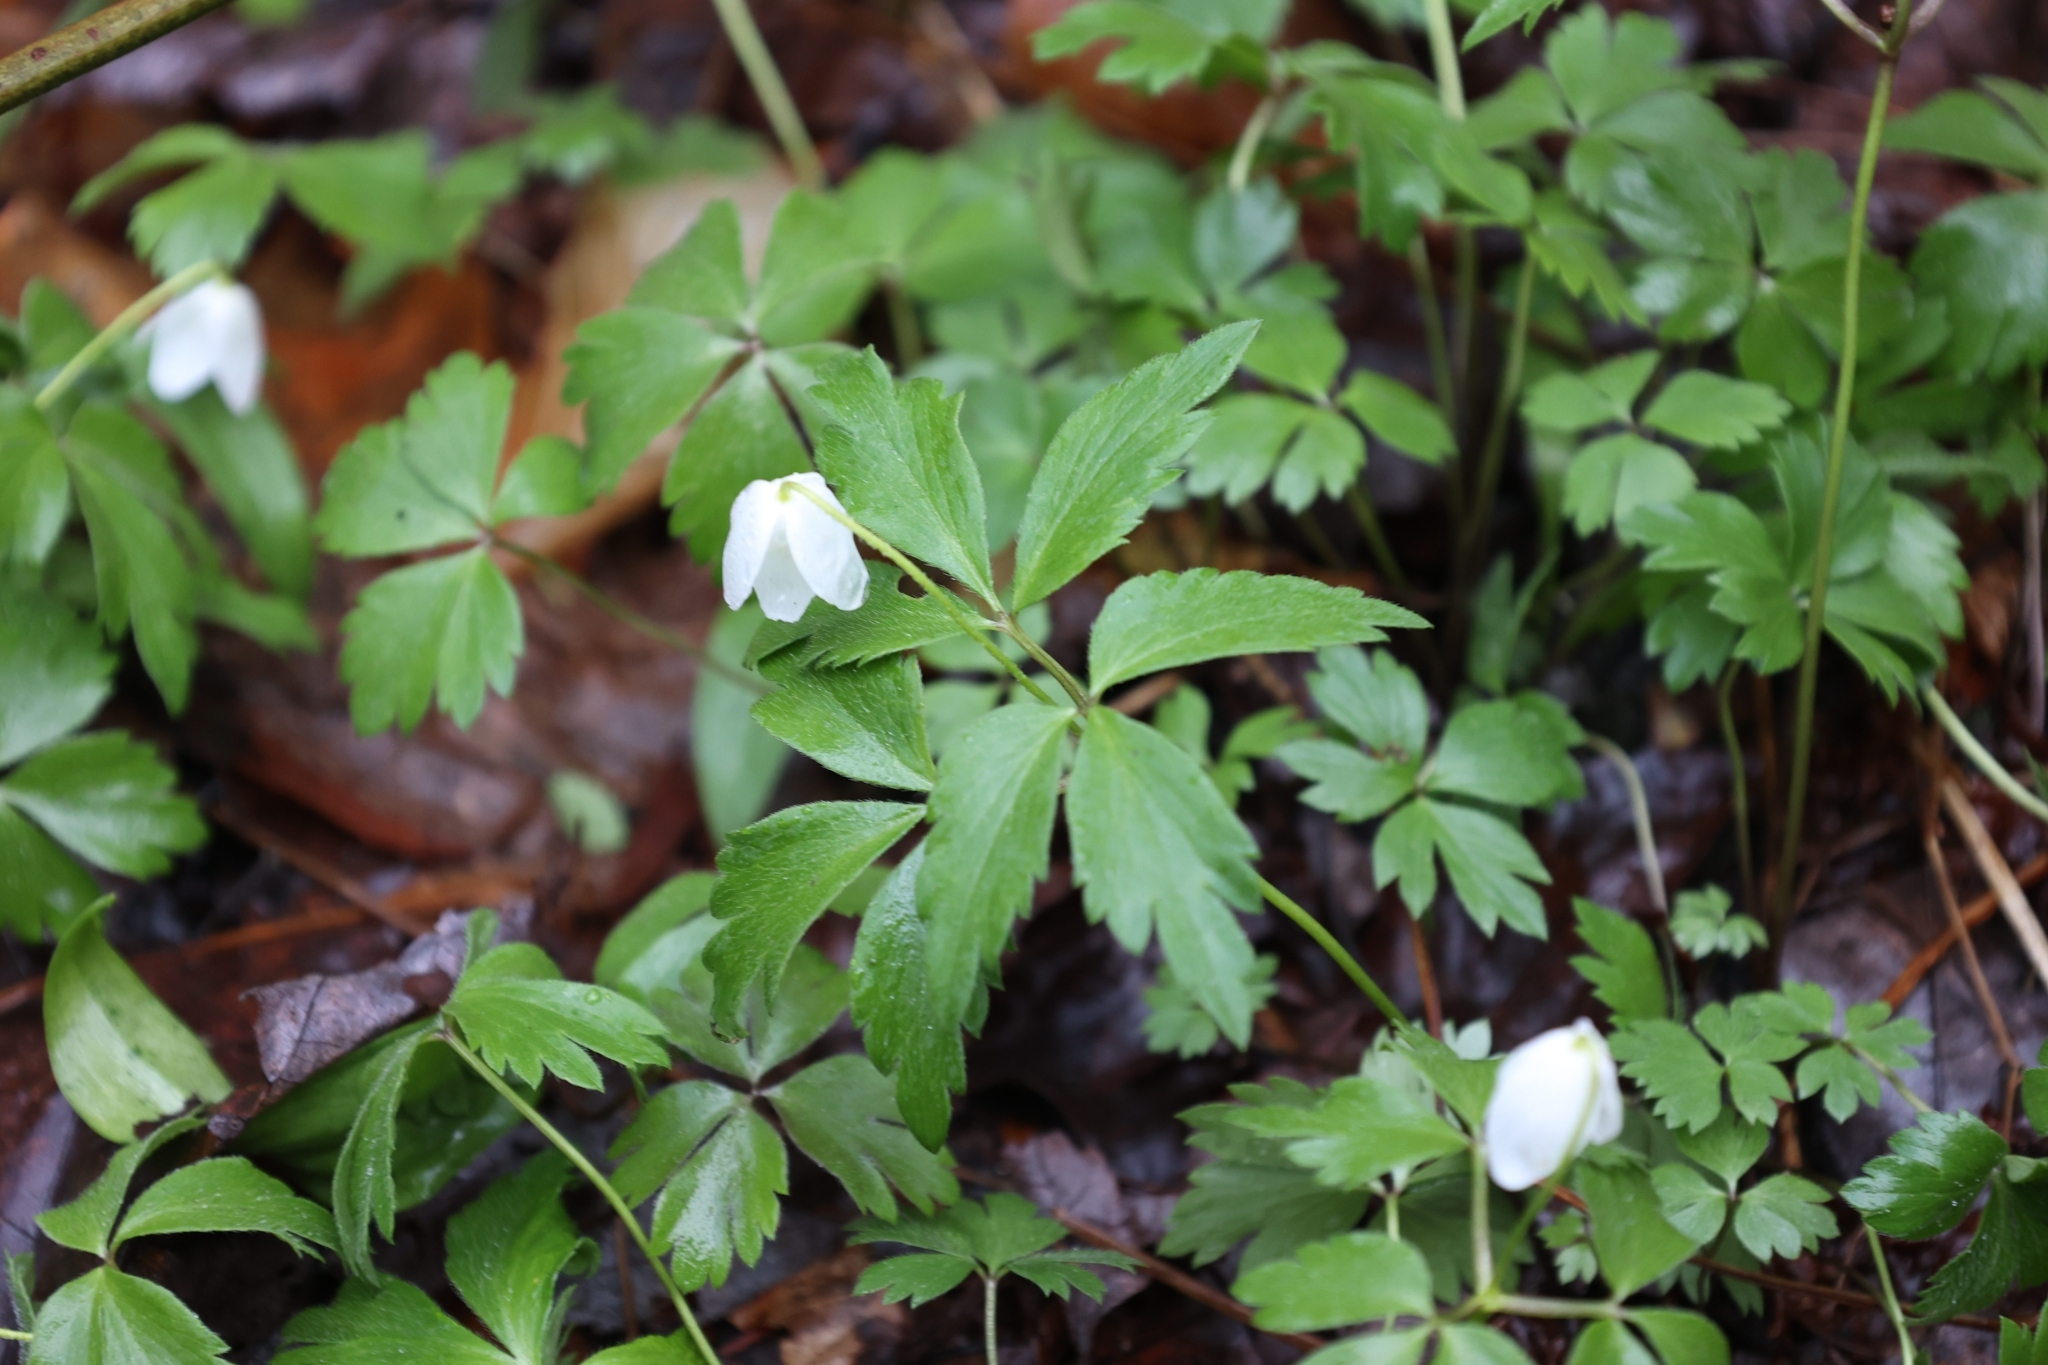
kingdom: Plantae
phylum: Tracheophyta
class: Magnoliopsida
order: Ranunculales
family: Ranunculaceae
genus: Anemone
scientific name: Anemone quinquefolia
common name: Wood anemone
